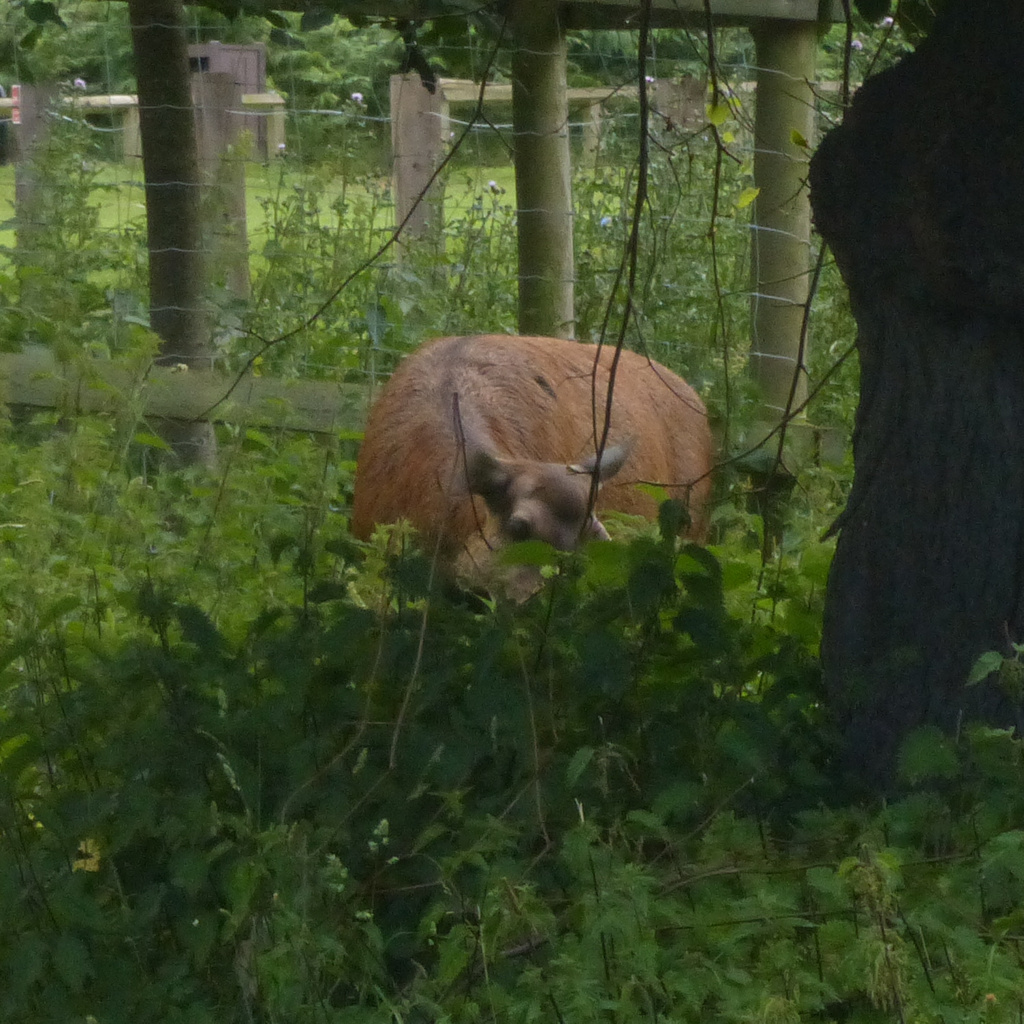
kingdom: Animalia
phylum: Chordata
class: Mammalia
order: Artiodactyla
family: Cervidae
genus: Cervus
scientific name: Cervus elaphus
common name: Red deer
